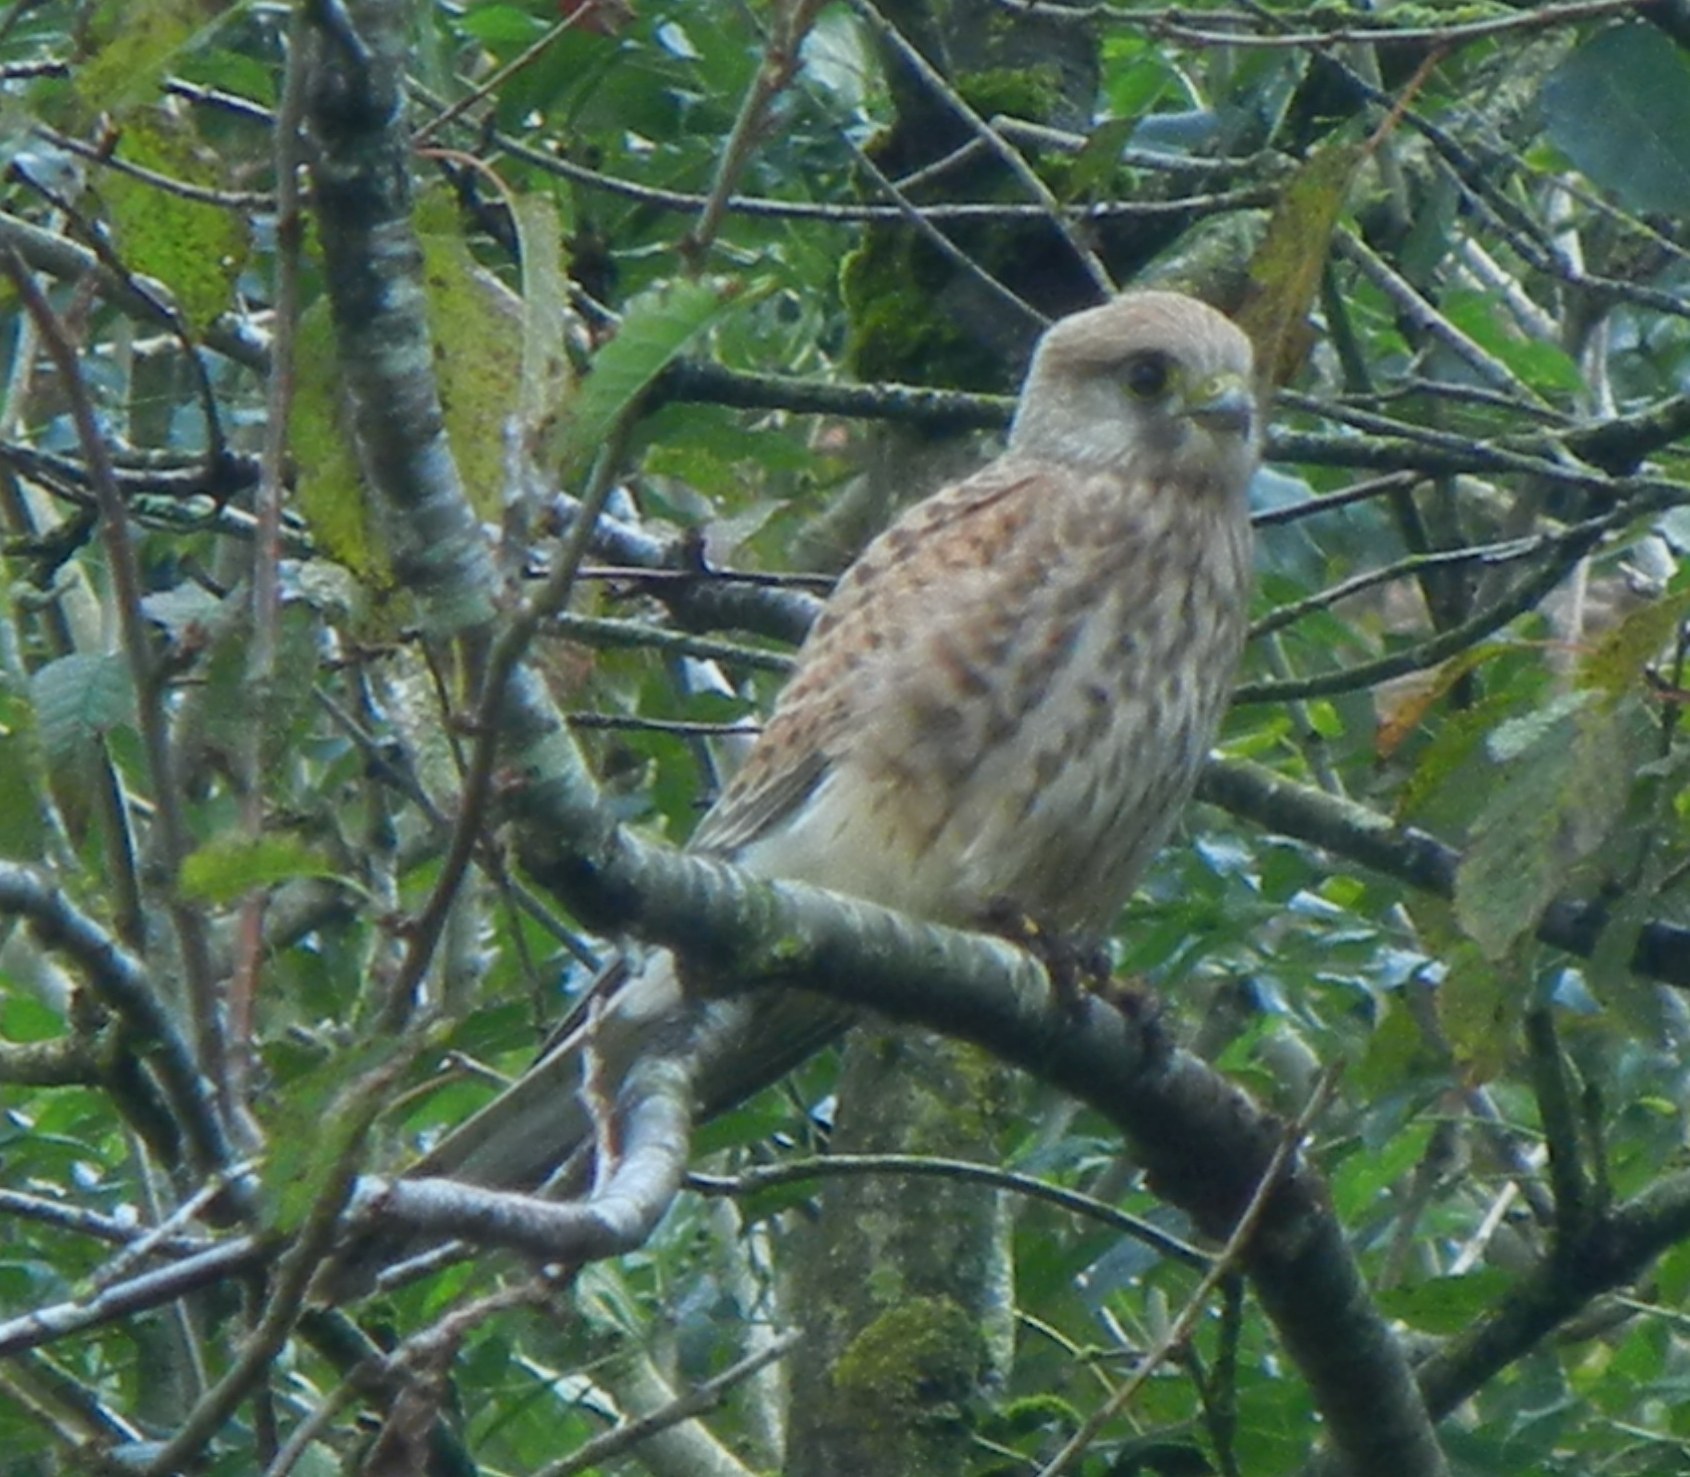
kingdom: Animalia
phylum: Chordata
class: Aves
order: Falconiformes
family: Falconidae
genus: Falco
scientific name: Falco tinnunculus
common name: Common kestrel
